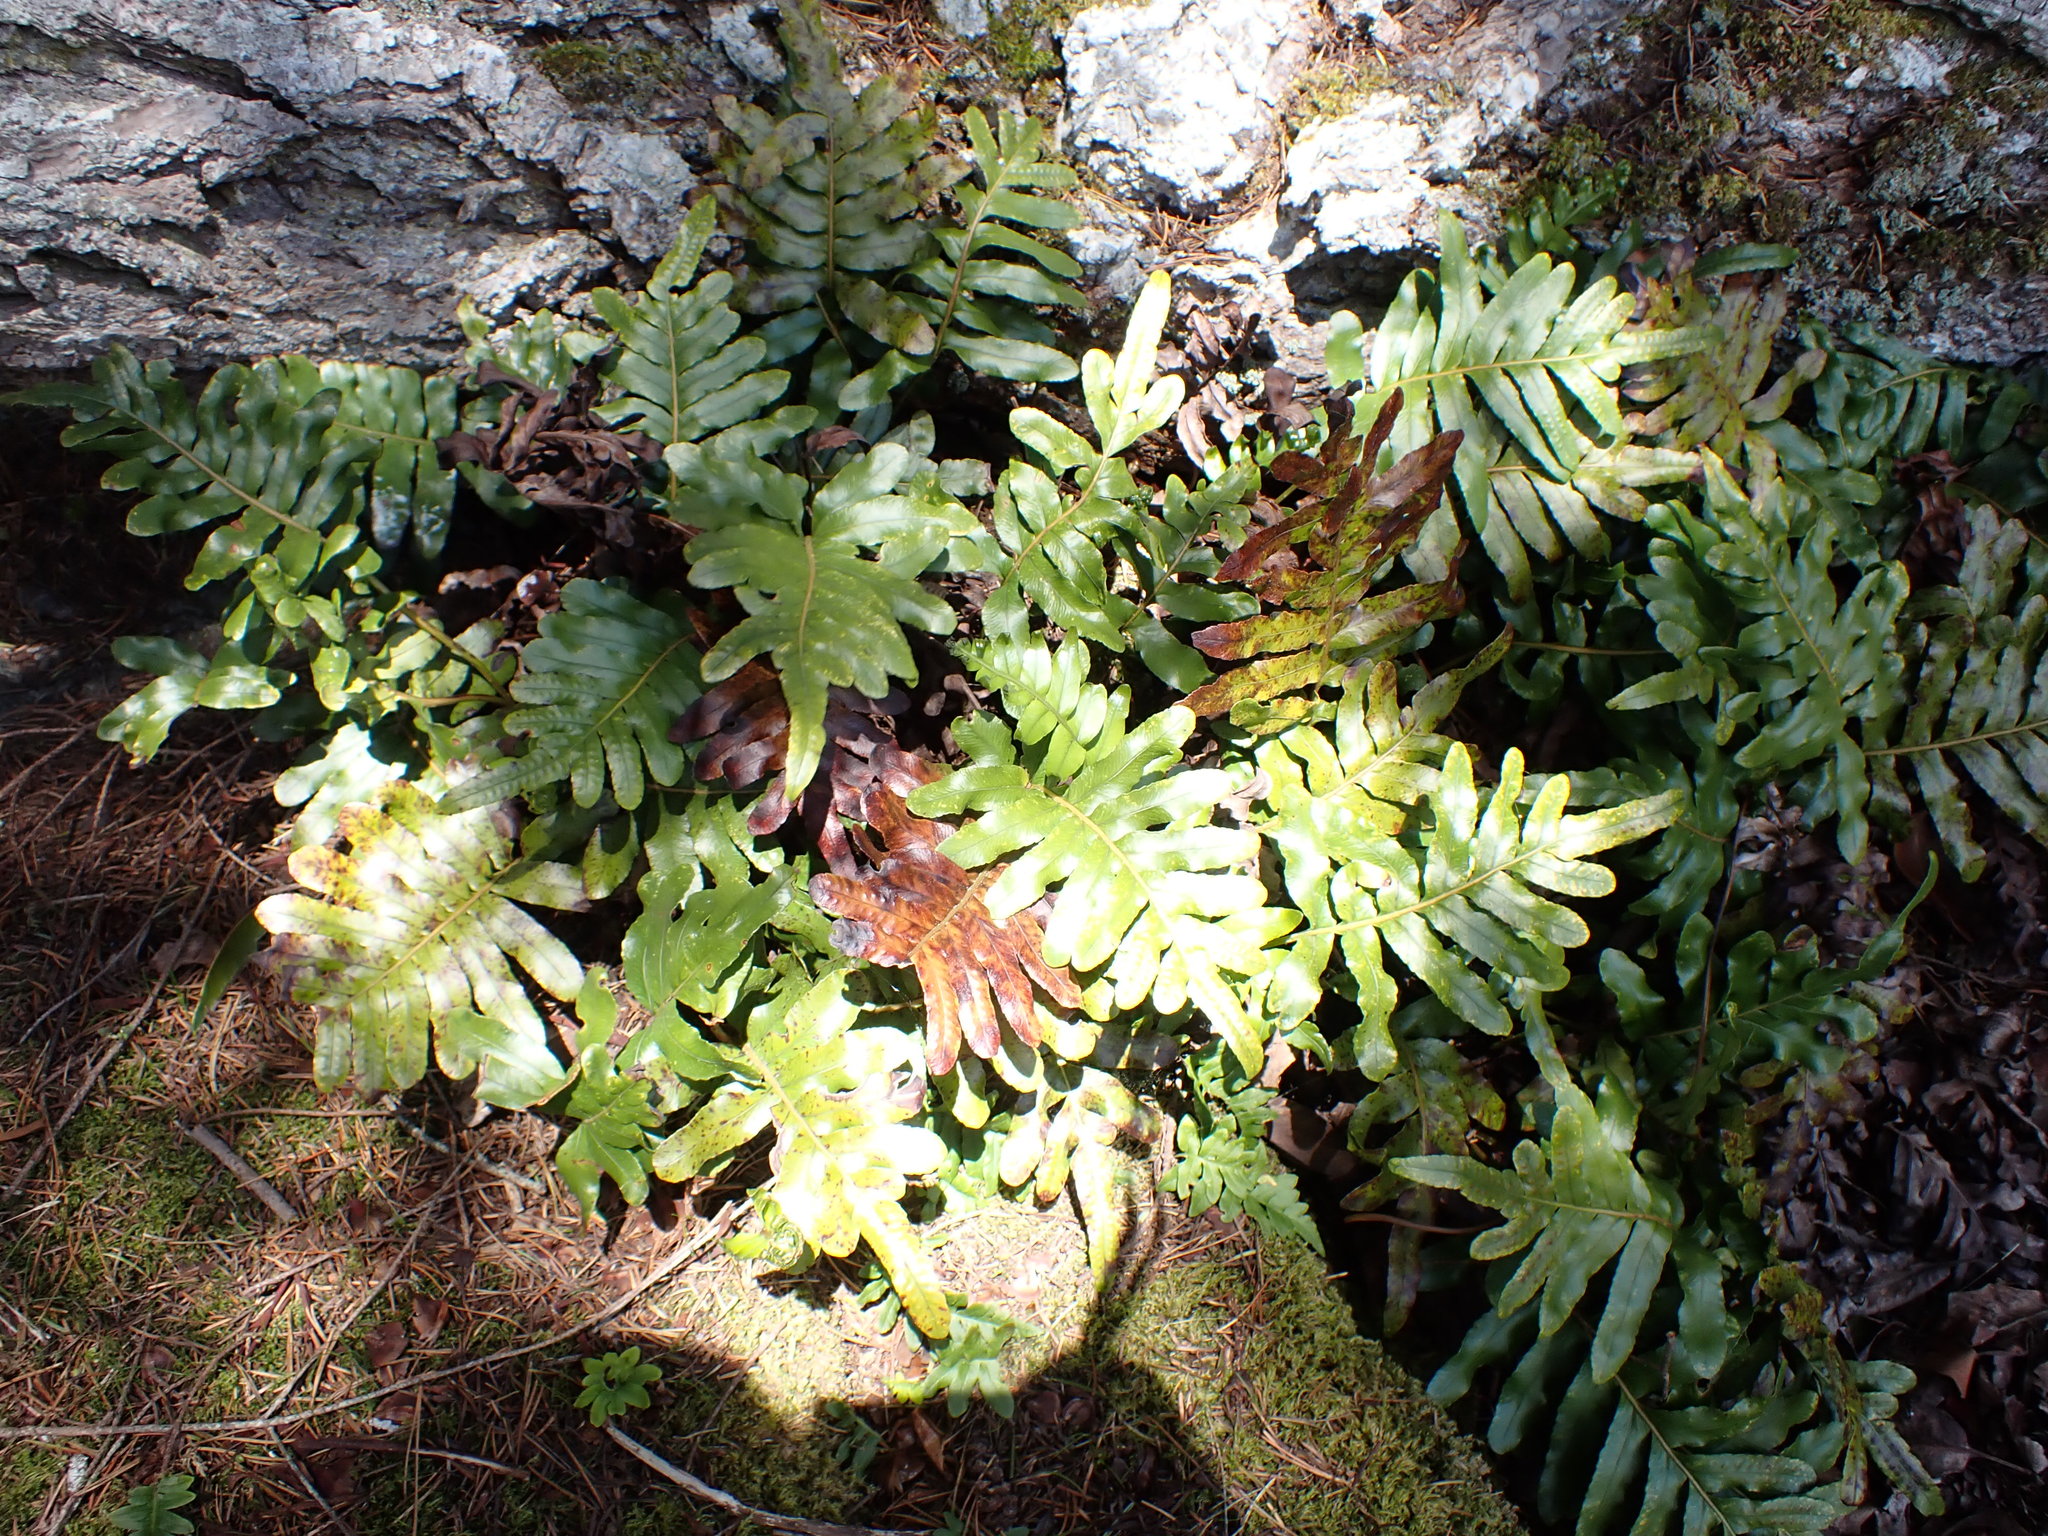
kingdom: Plantae
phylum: Tracheophyta
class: Polypodiopsida
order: Polypodiales
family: Polypodiaceae
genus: Polypodium
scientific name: Polypodium scouleri
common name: Scouler's polypody
